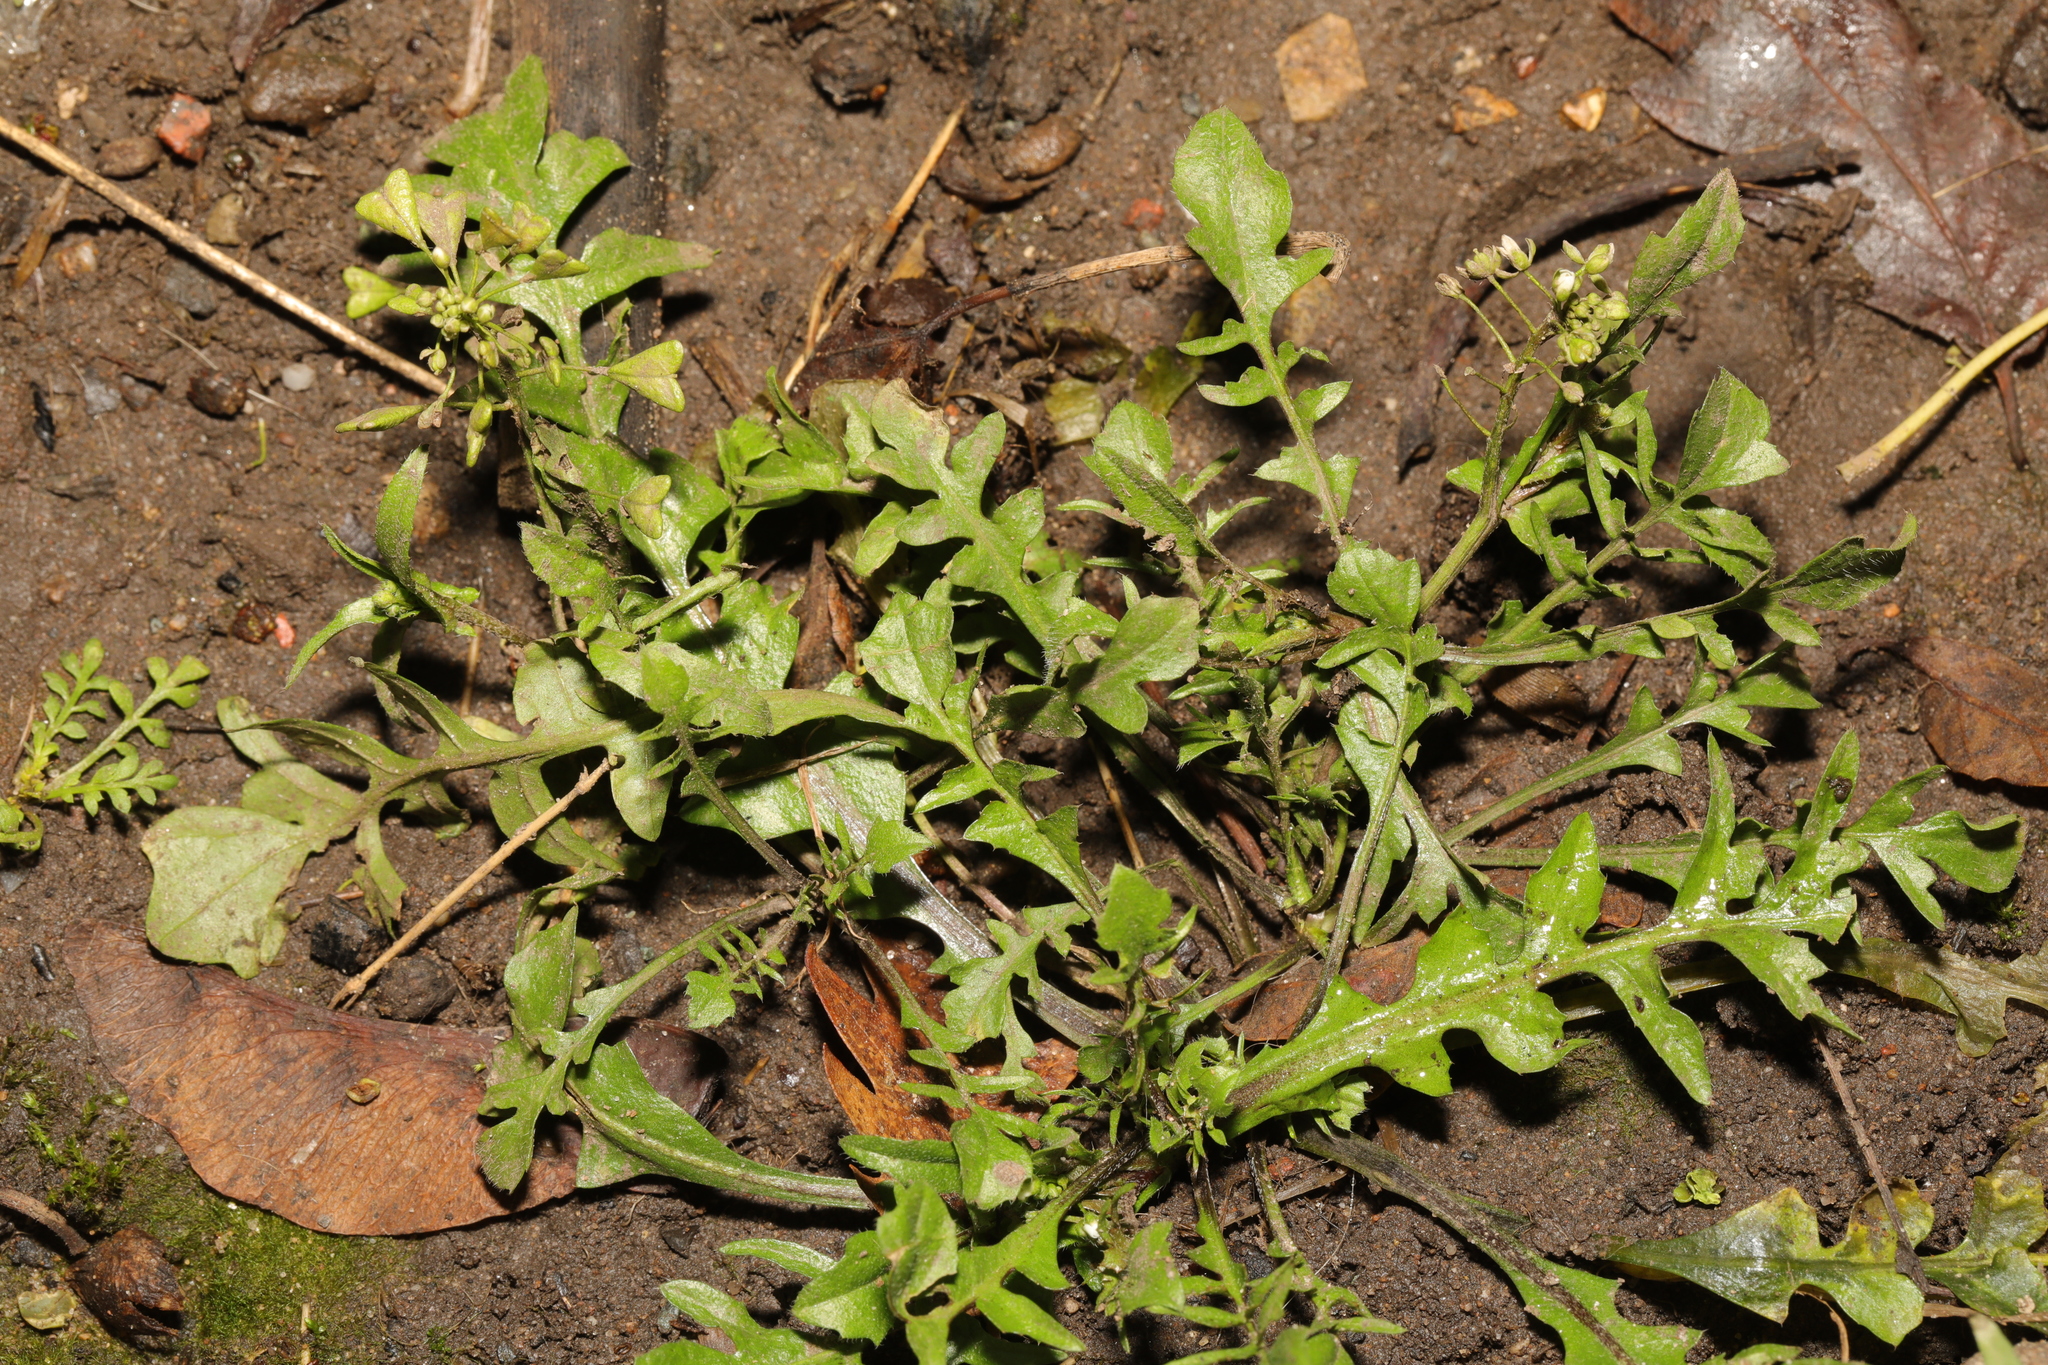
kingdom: Plantae
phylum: Tracheophyta
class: Magnoliopsida
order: Brassicales
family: Brassicaceae
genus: Capsella
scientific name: Capsella bursa-pastoris
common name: Shepherd's purse
